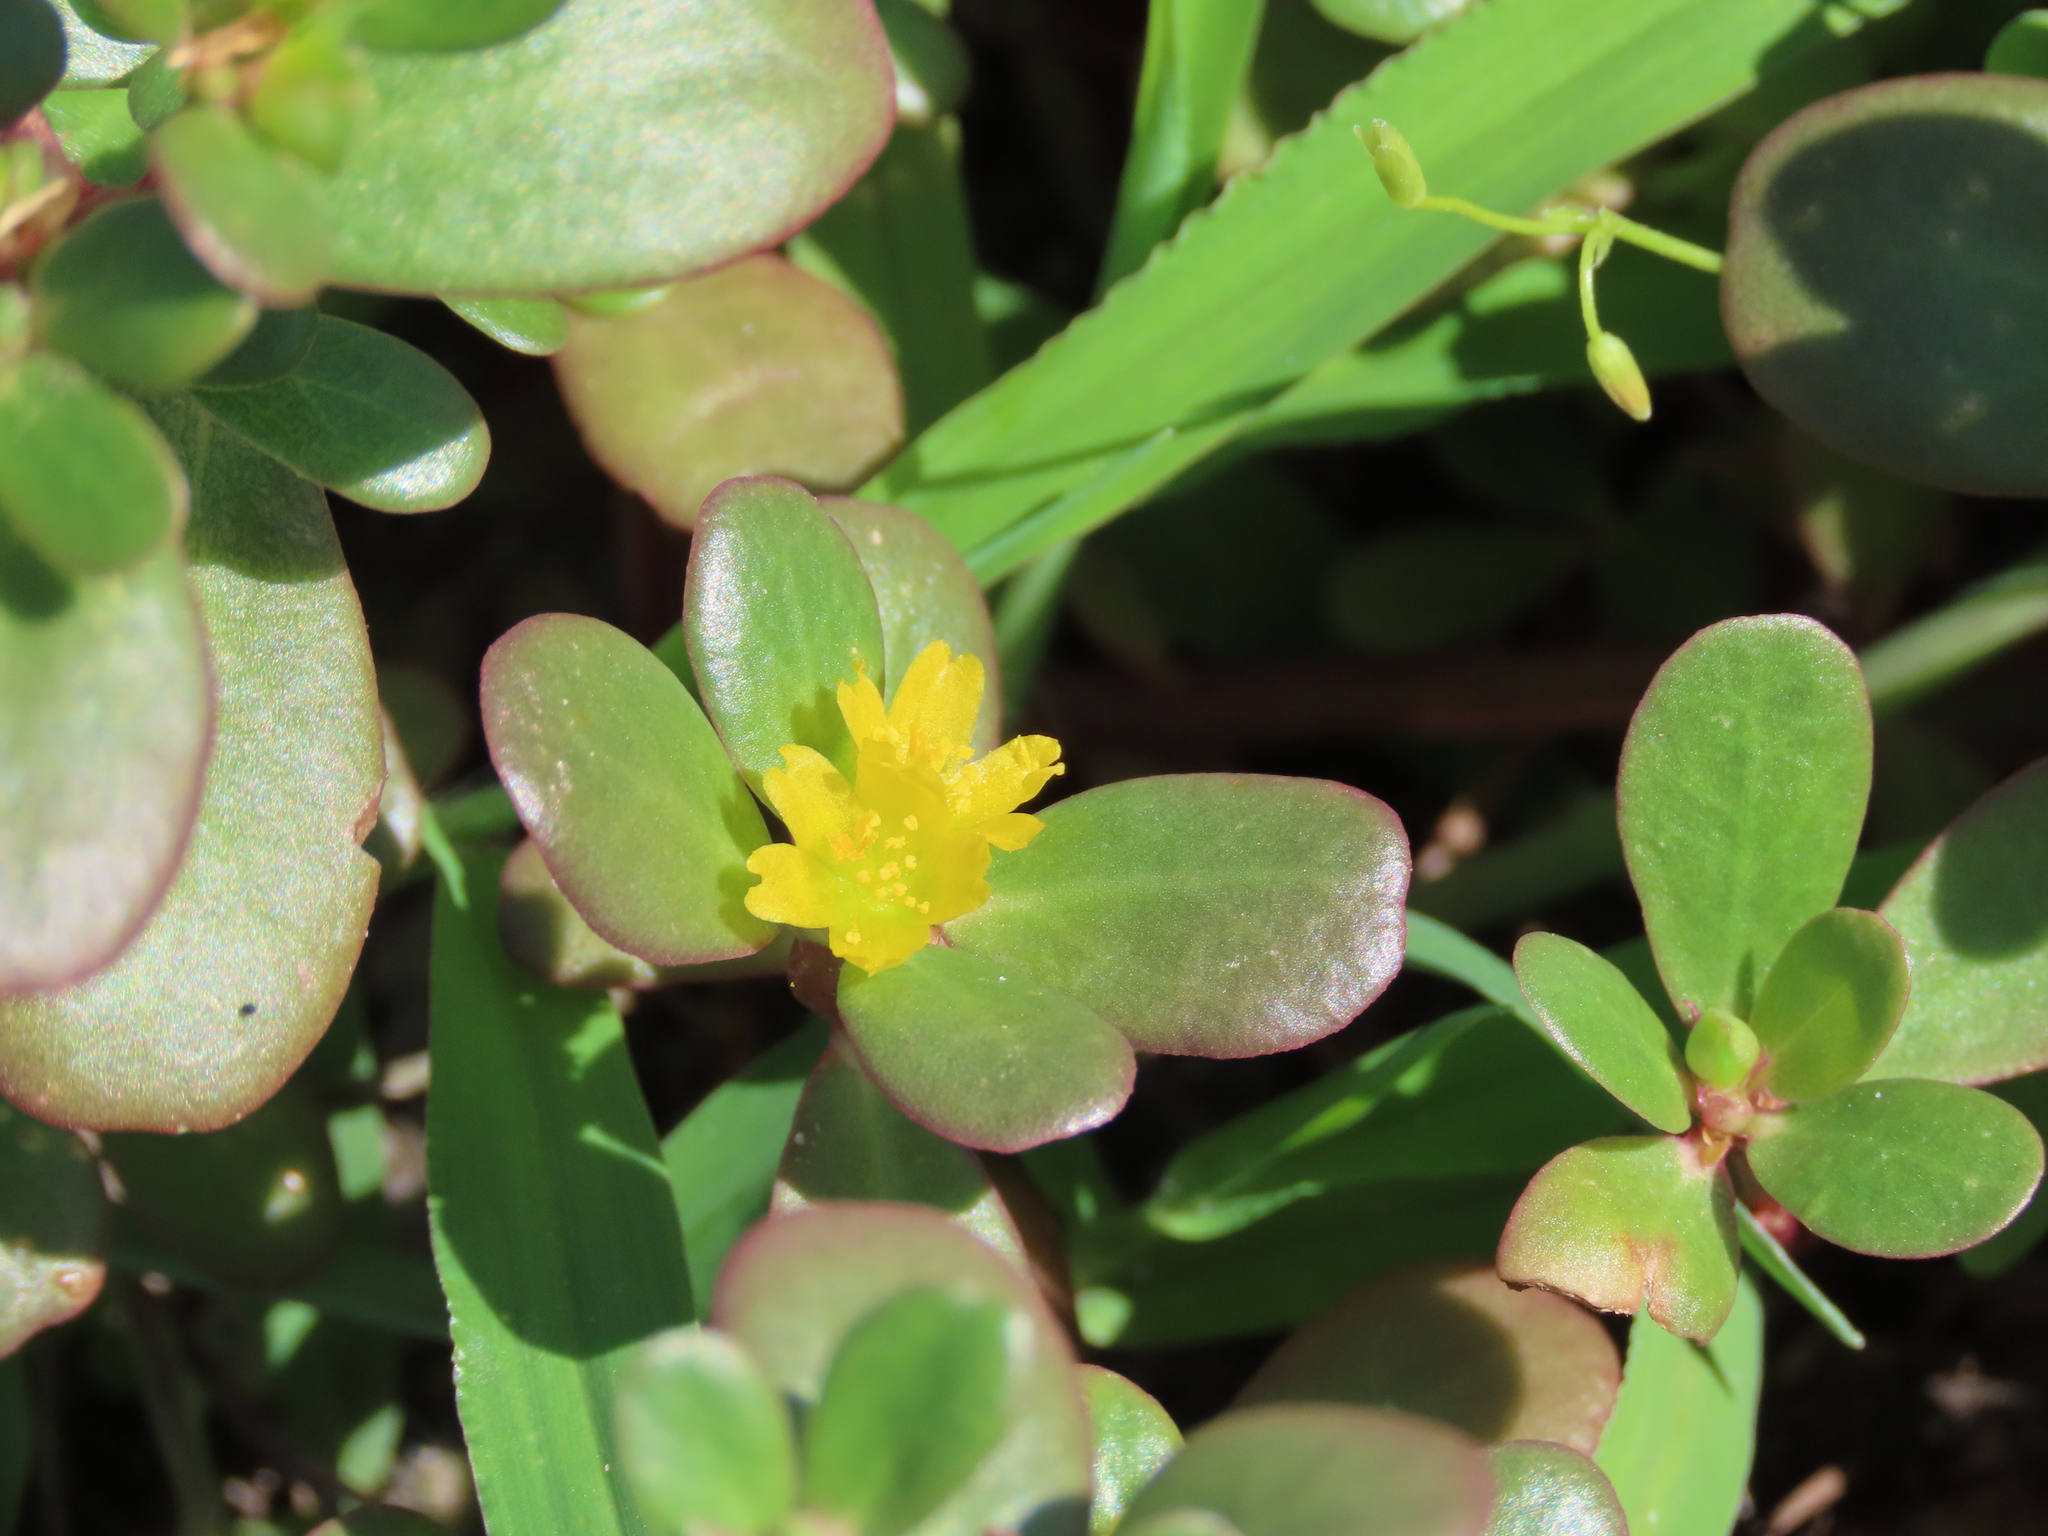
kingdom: Plantae
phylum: Tracheophyta
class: Magnoliopsida
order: Caryophyllales
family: Portulacaceae
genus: Portulaca
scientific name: Portulaca oleracea
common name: Common purslane
